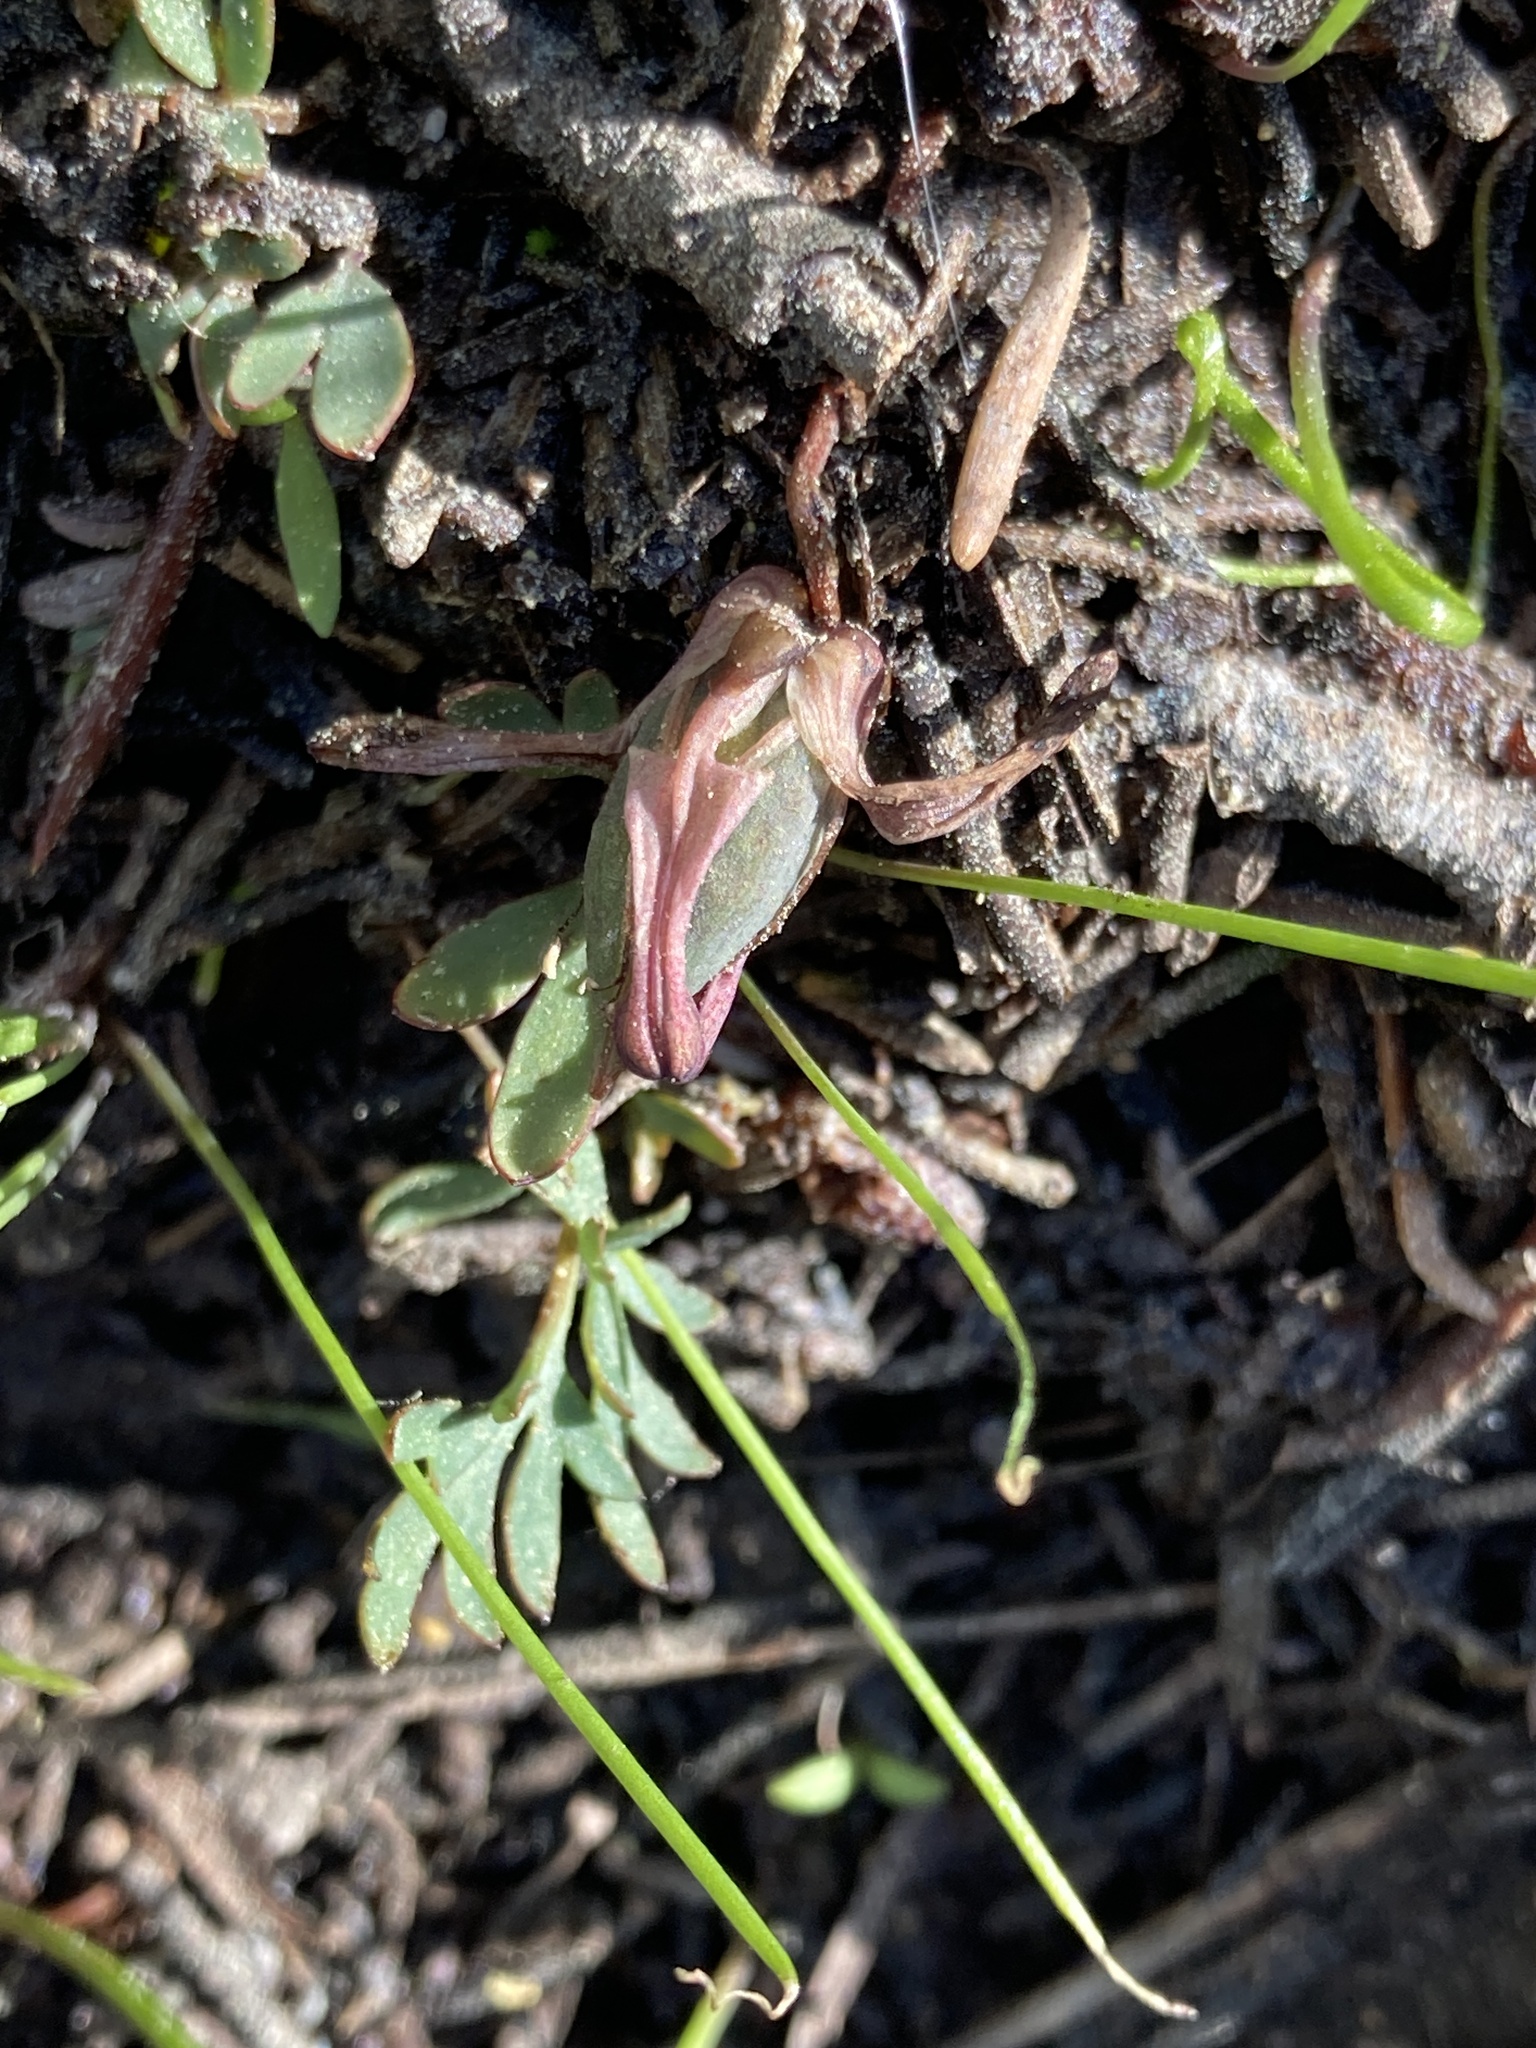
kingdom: Plantae
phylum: Tracheophyta
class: Magnoliopsida
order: Ranunculales
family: Papaveraceae
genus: Dicentra
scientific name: Dicentra uniflora
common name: Steer's-head
